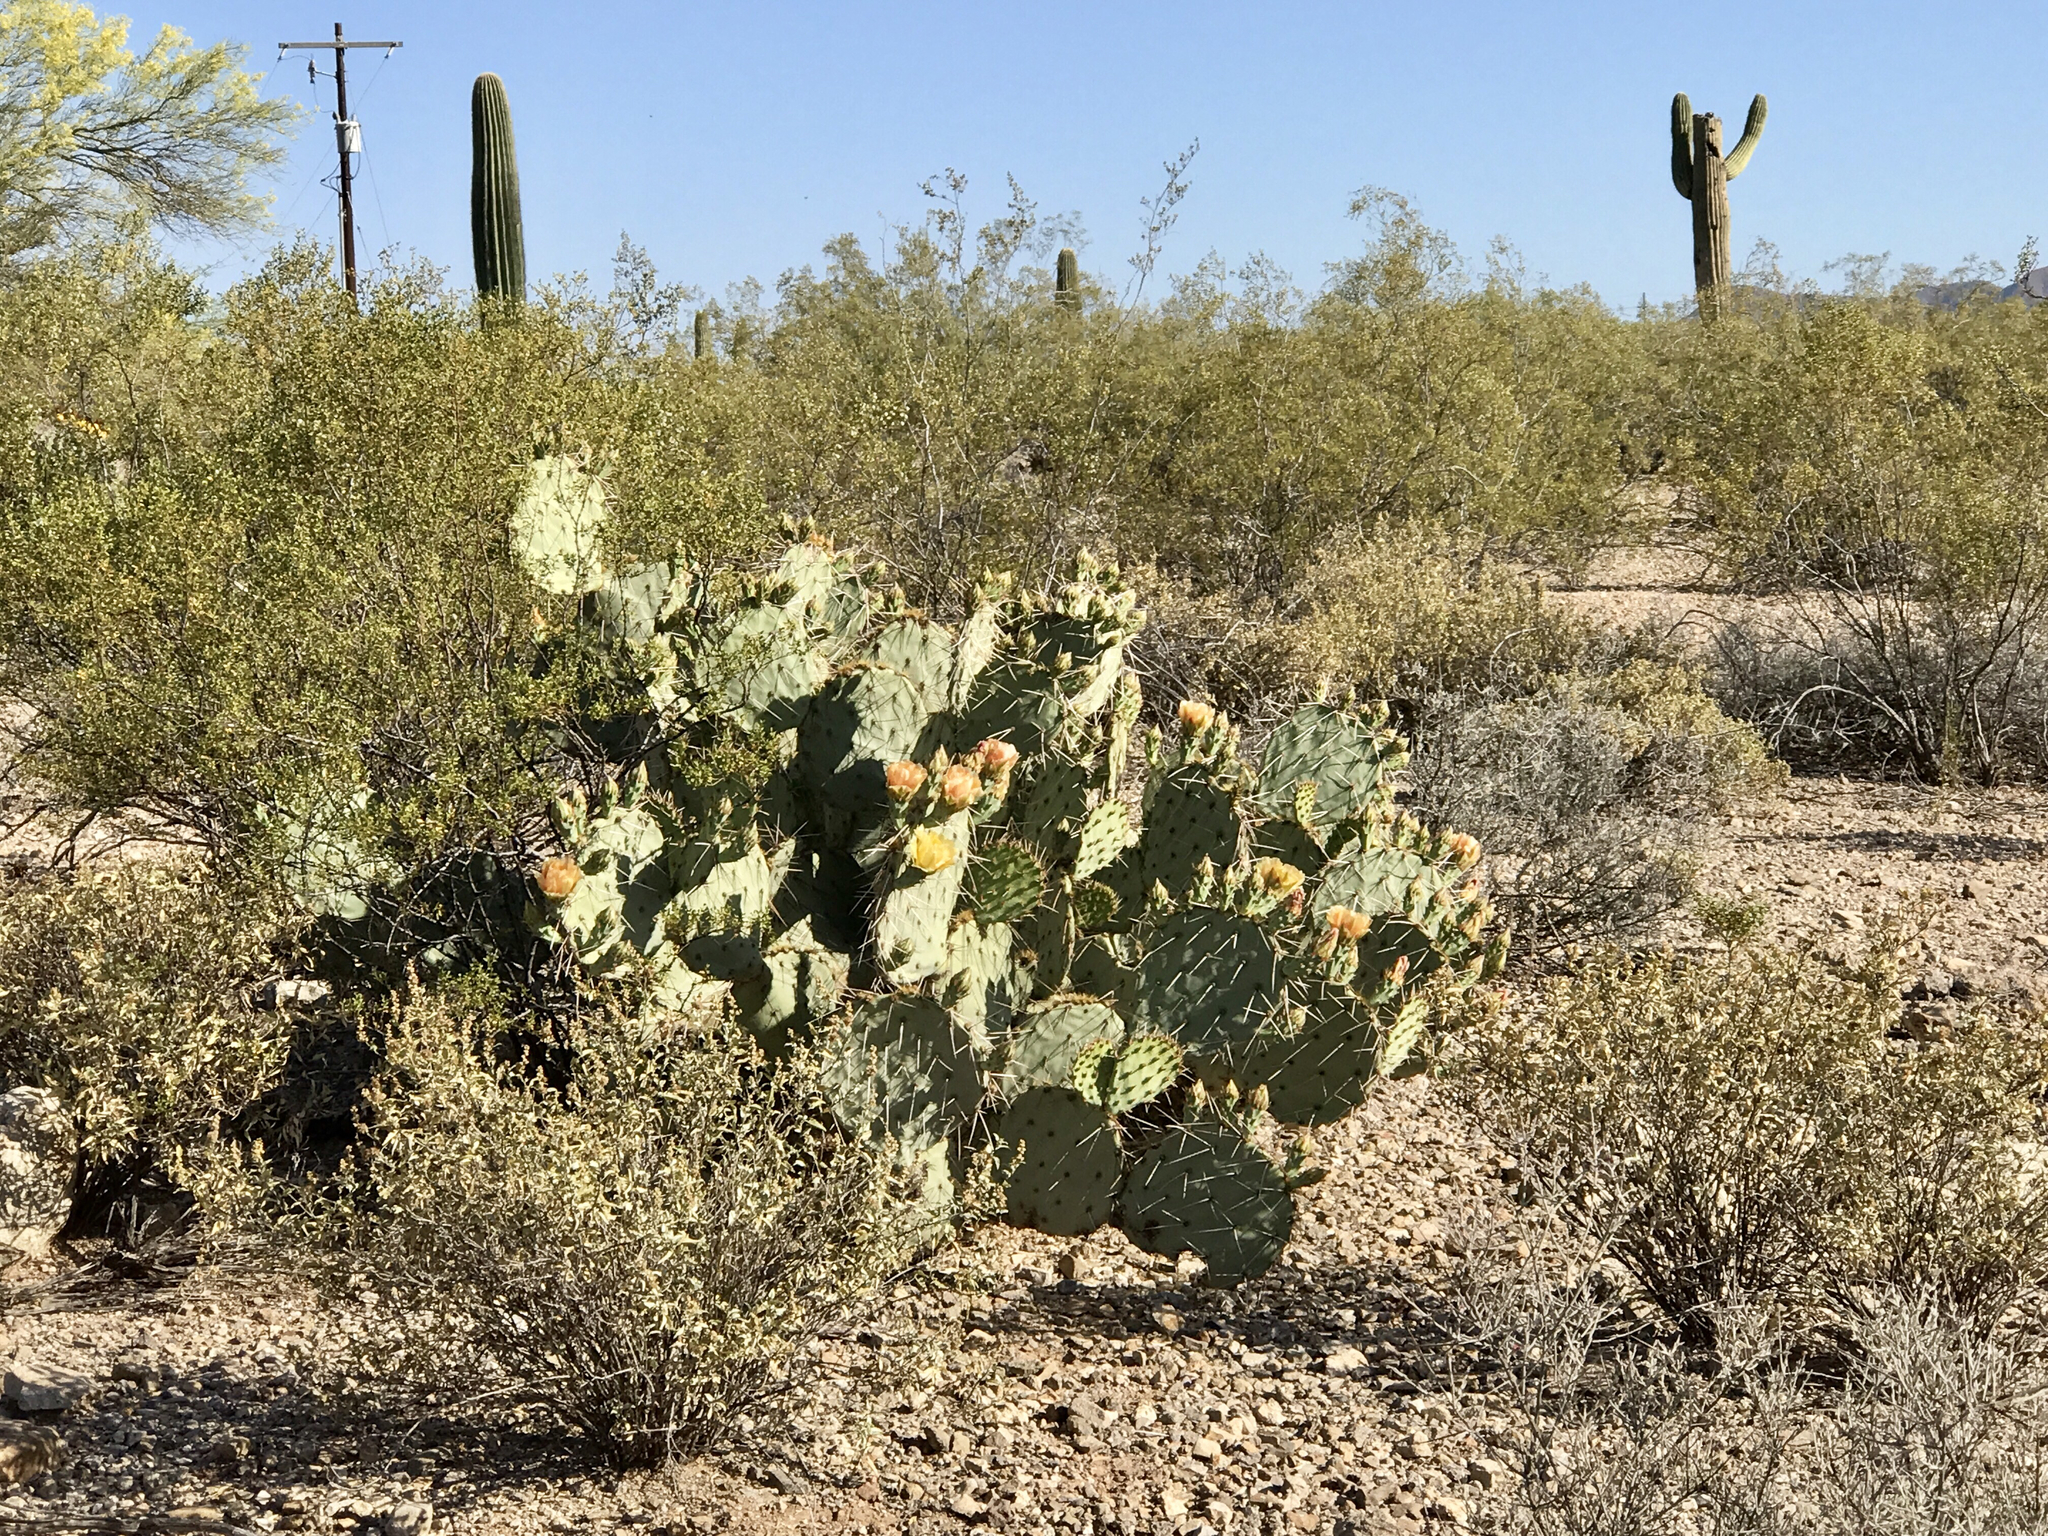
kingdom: Plantae
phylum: Tracheophyta
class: Magnoliopsida
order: Caryophyllales
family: Cactaceae
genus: Opuntia
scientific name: Opuntia engelmannii
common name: Cactus-apple
